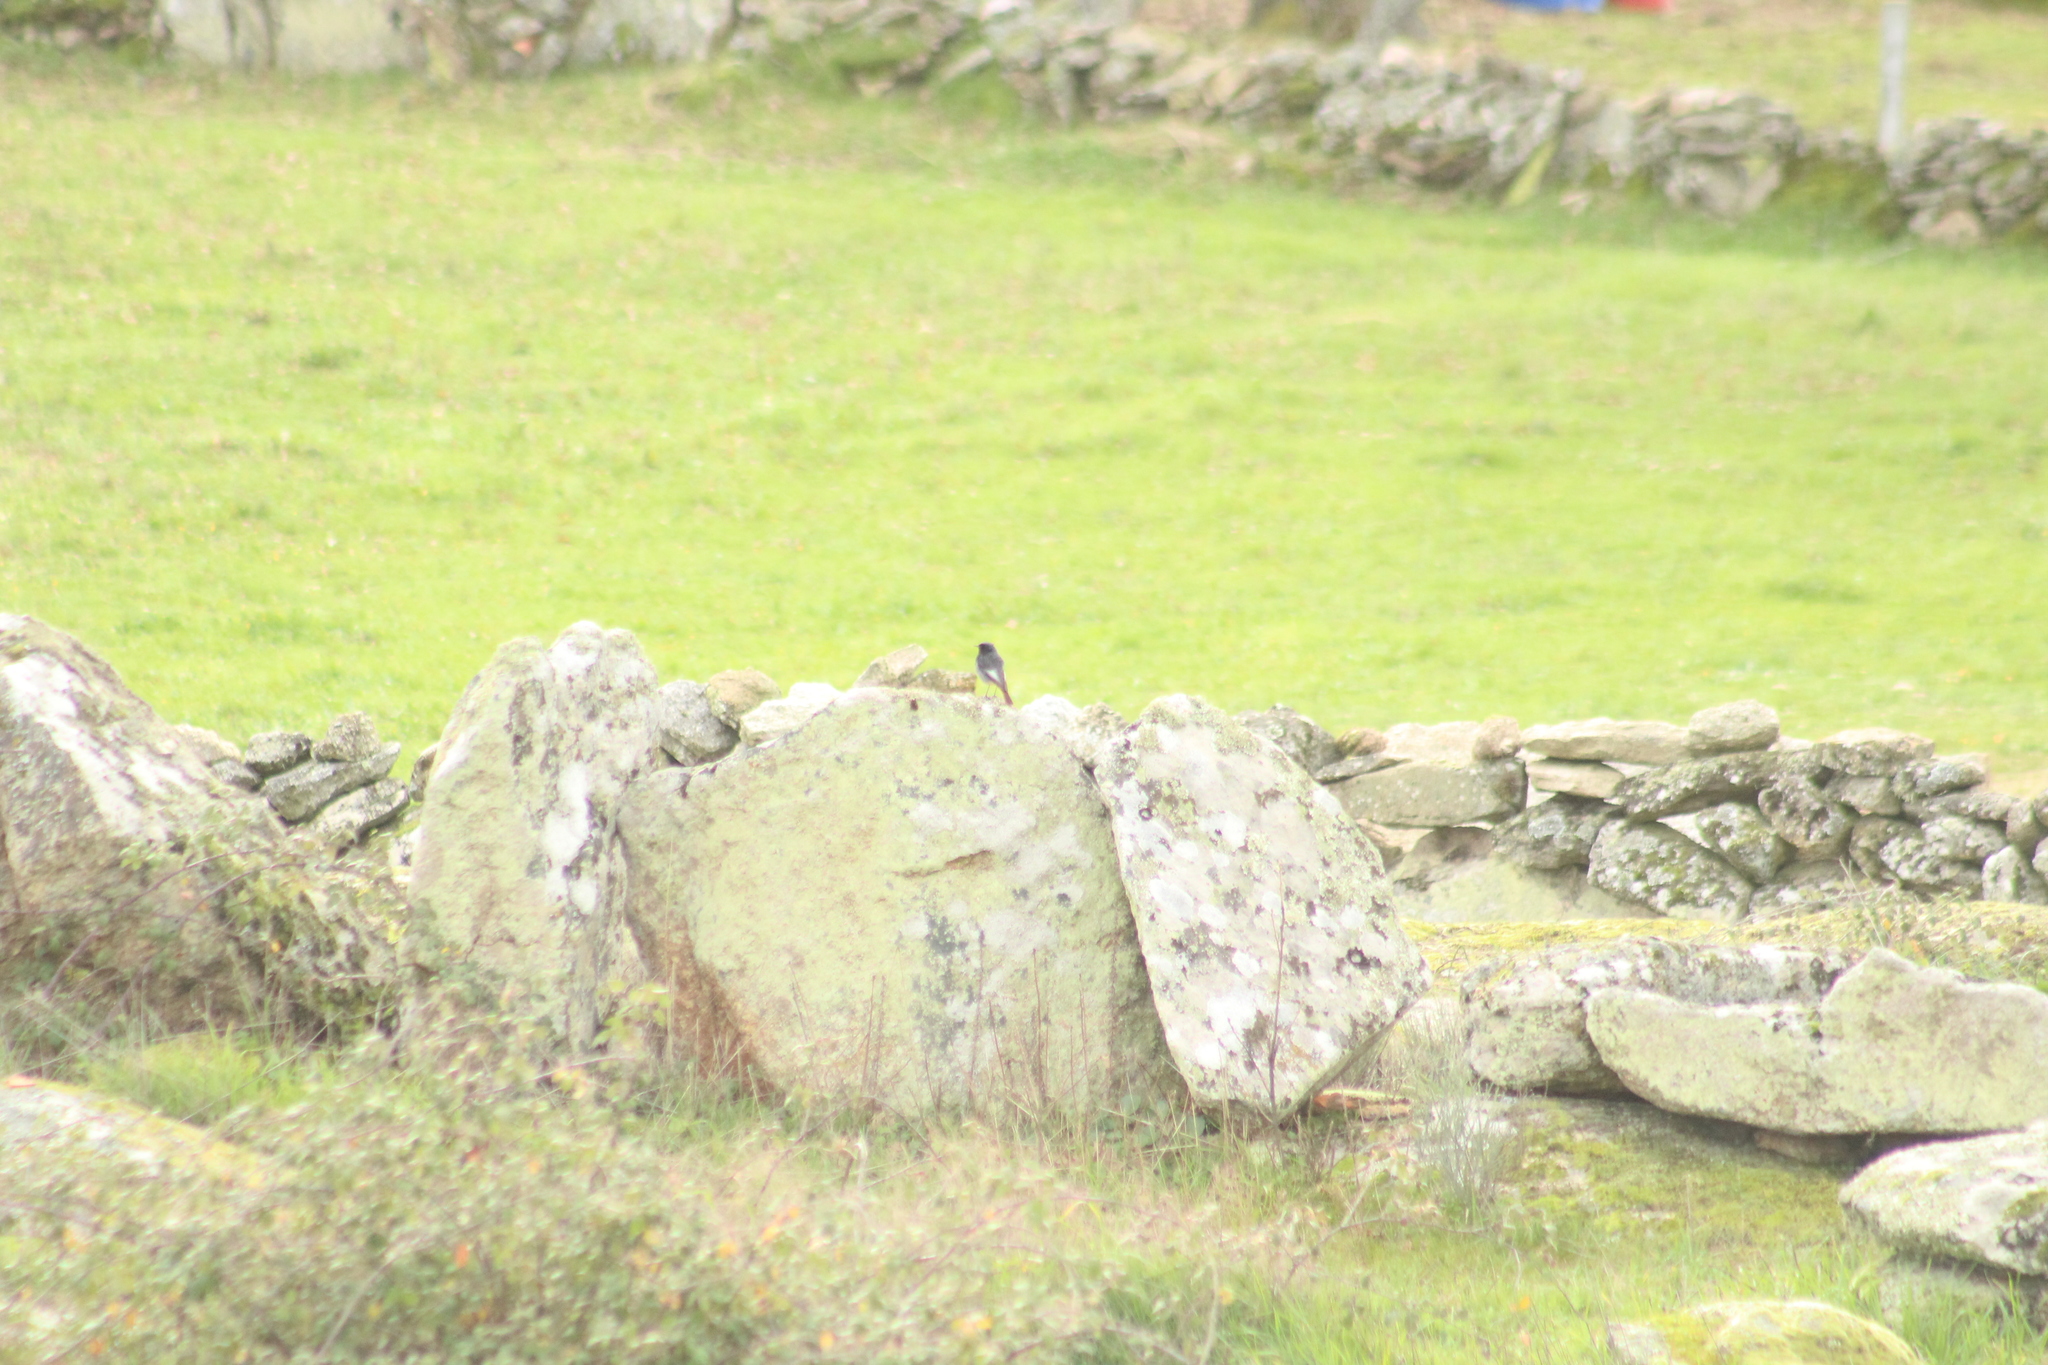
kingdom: Animalia
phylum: Chordata
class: Aves
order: Passeriformes
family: Muscicapidae
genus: Phoenicurus
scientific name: Phoenicurus ochruros
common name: Black redstart
